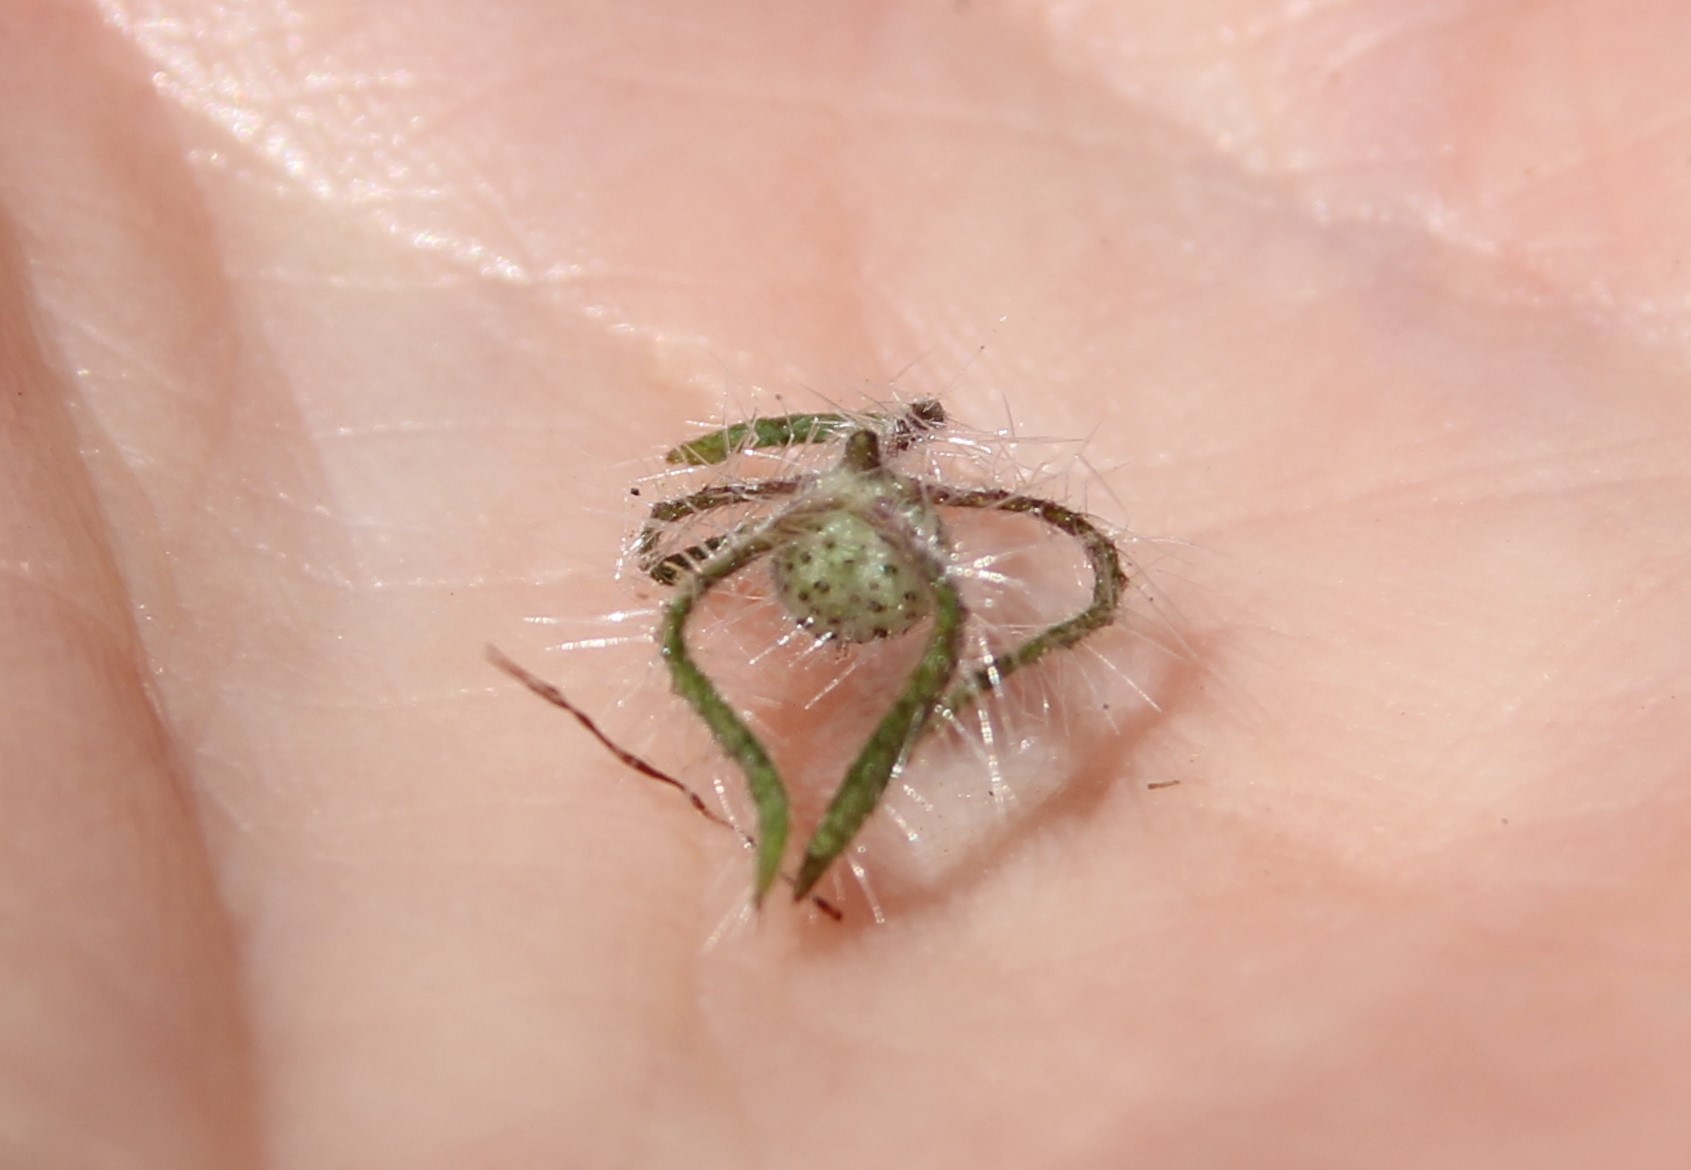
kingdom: Plantae
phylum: Tracheophyta
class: Magnoliopsida
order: Boraginales
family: Hydrophyllaceae
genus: Phacelia
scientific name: Phacelia cicutaria
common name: Caterpillar phacelia
